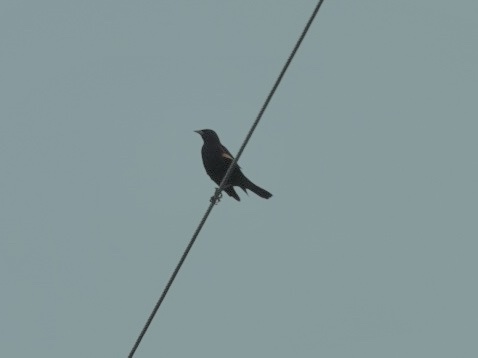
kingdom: Animalia
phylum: Chordata
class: Aves
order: Passeriformes
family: Icteridae
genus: Agelaius
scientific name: Agelaius phoeniceus
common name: Red-winged blackbird
